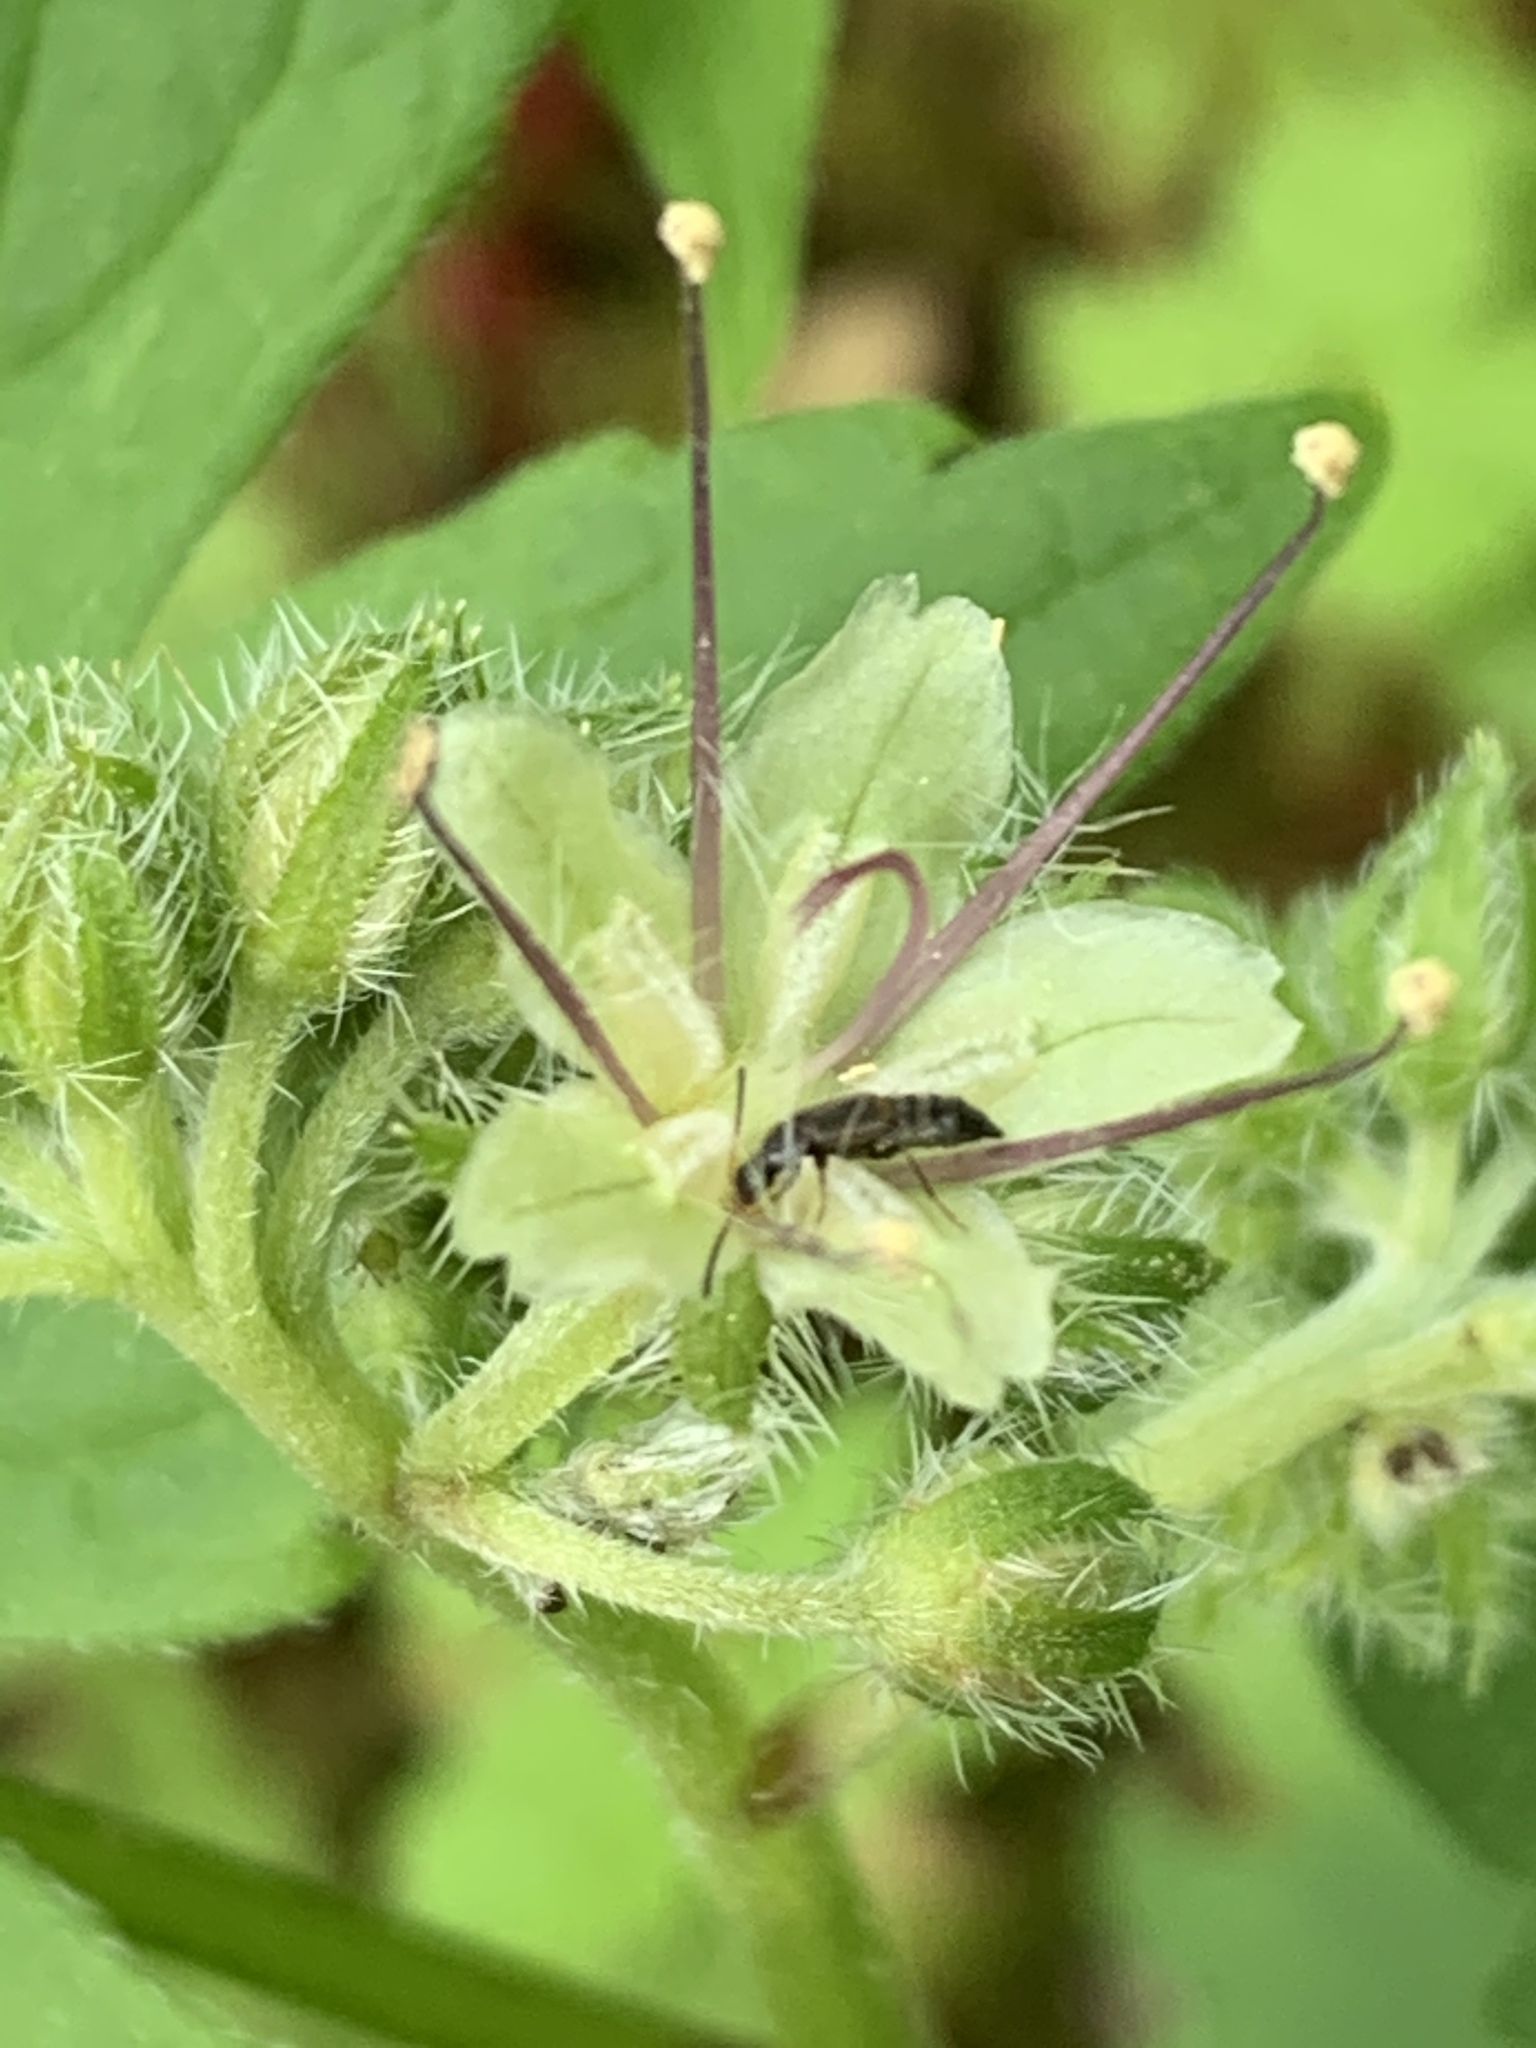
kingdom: Plantae
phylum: Tracheophyta
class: Magnoliopsida
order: Boraginales
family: Hydrophyllaceae
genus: Hydrophyllum
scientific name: Hydrophyllum tenuipes
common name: Pacific waterleaf
